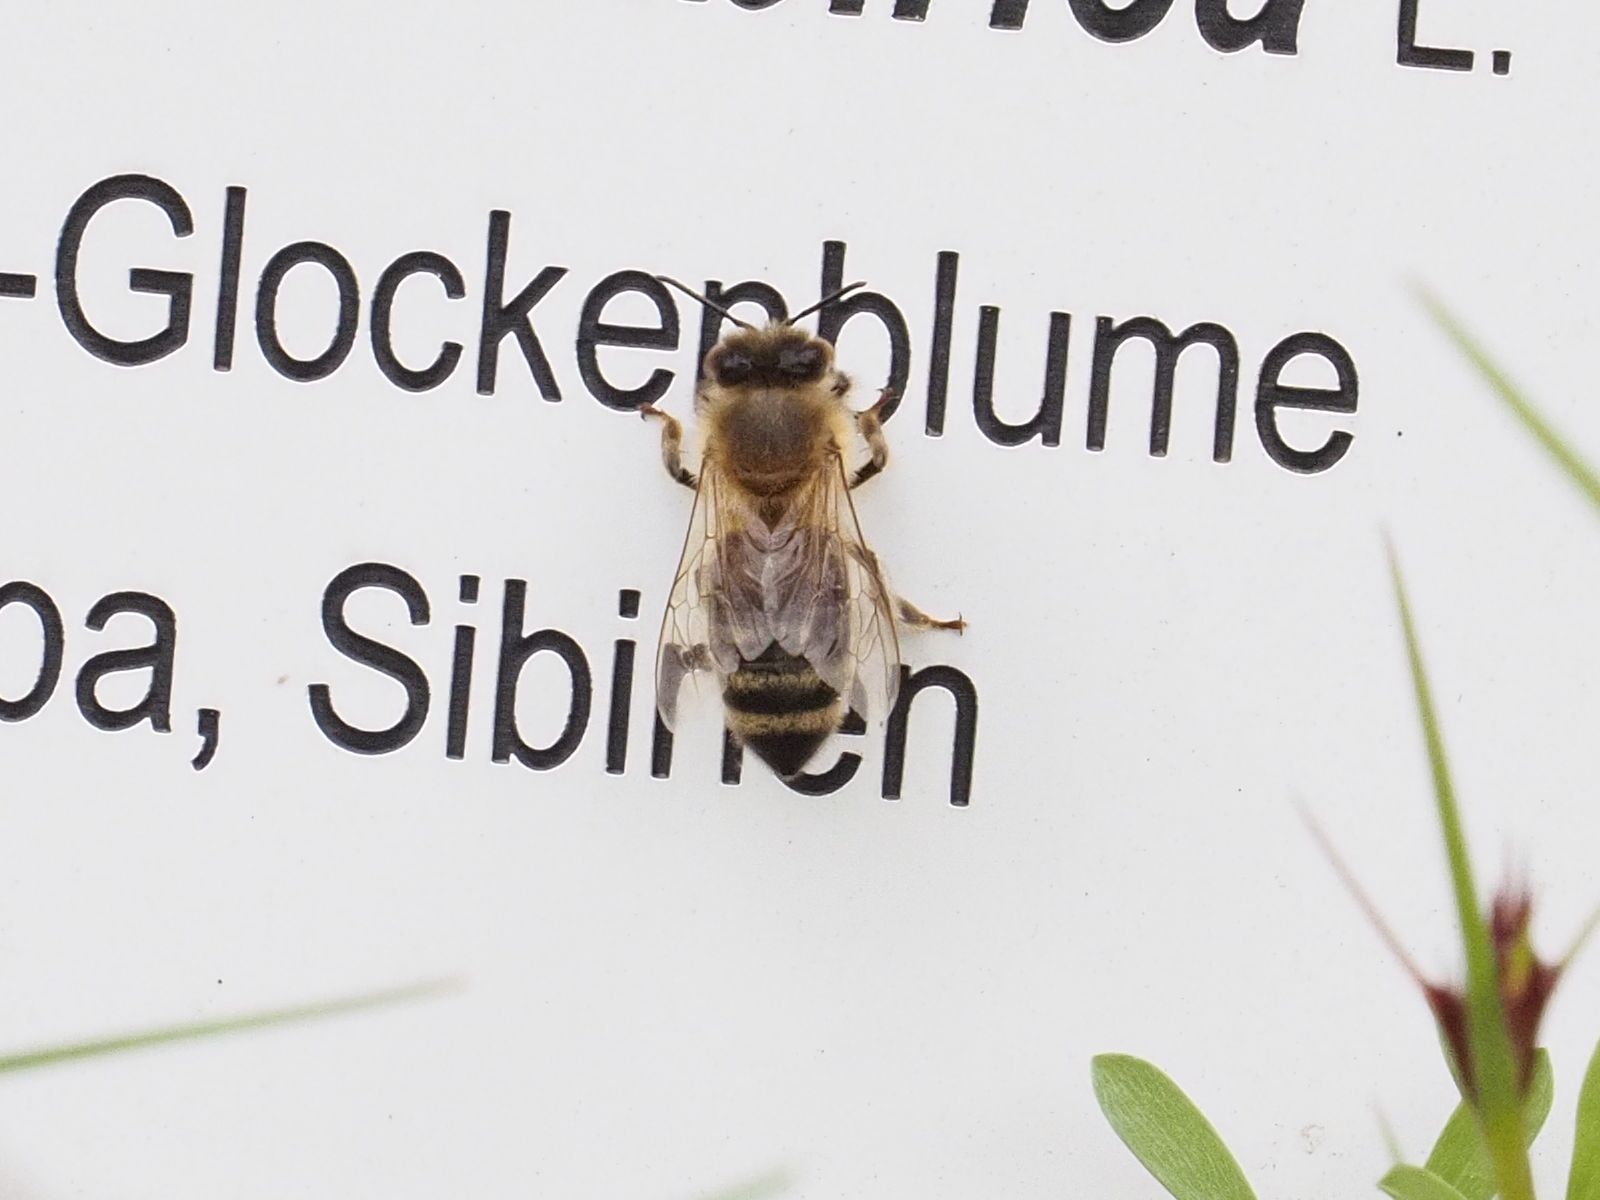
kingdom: Animalia
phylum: Arthropoda
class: Insecta
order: Hymenoptera
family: Apidae
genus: Apis
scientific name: Apis mellifera
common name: Honey bee
